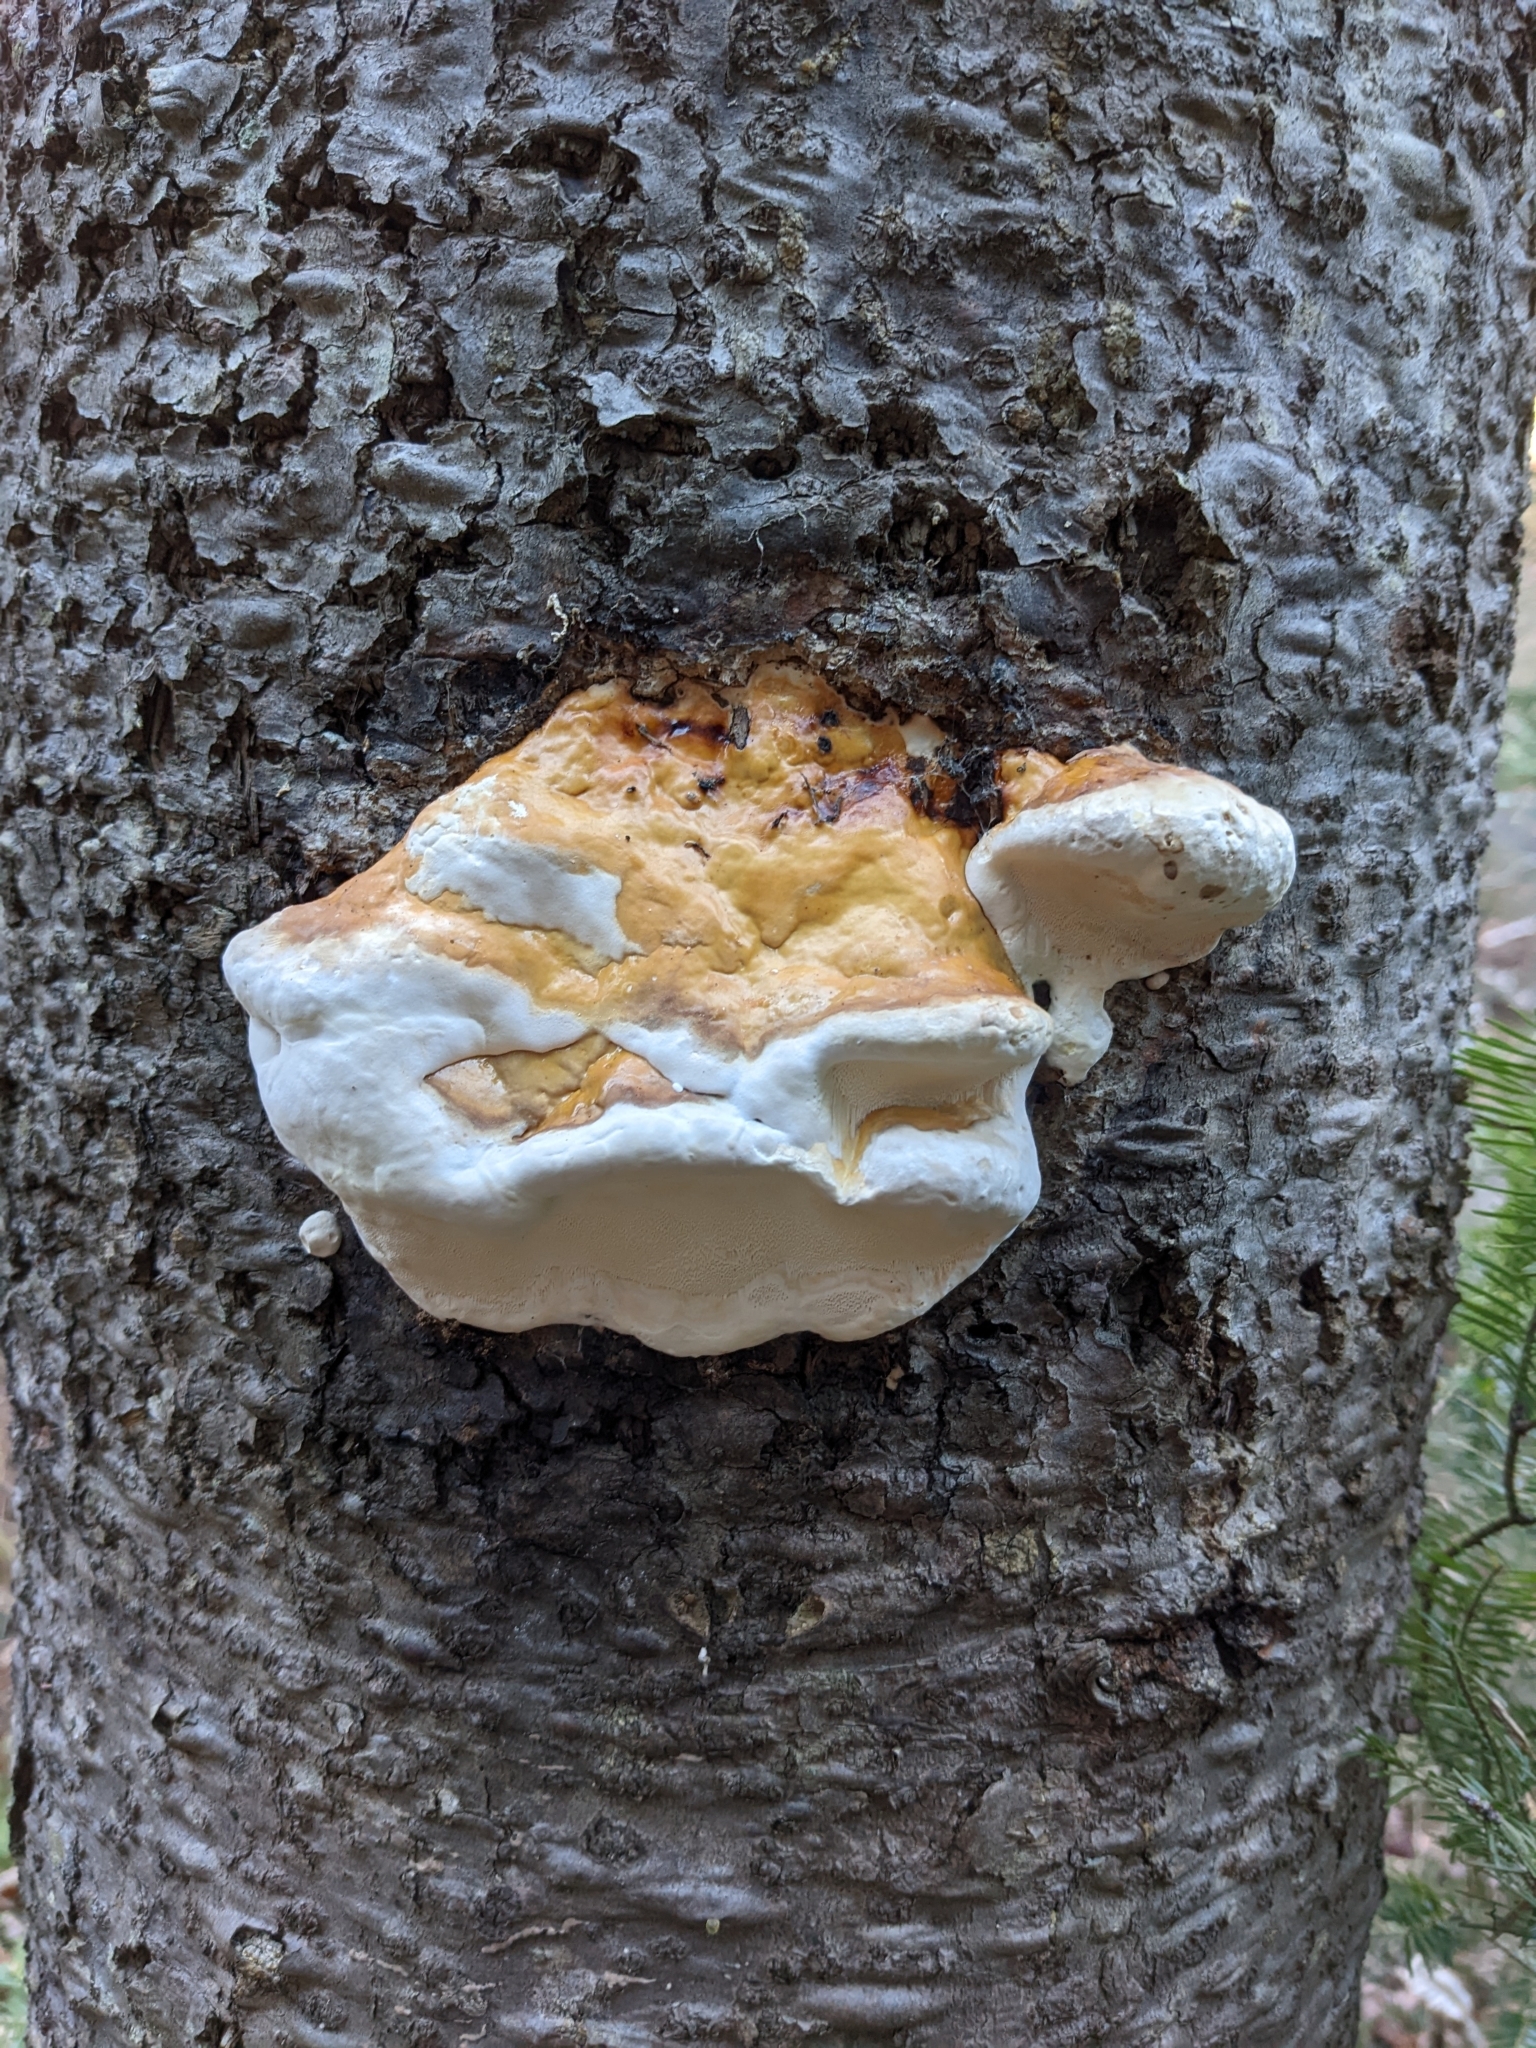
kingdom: Fungi
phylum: Basidiomycota
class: Agaricomycetes
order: Polyporales
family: Fomitopsidaceae
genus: Fomitopsis
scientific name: Fomitopsis
